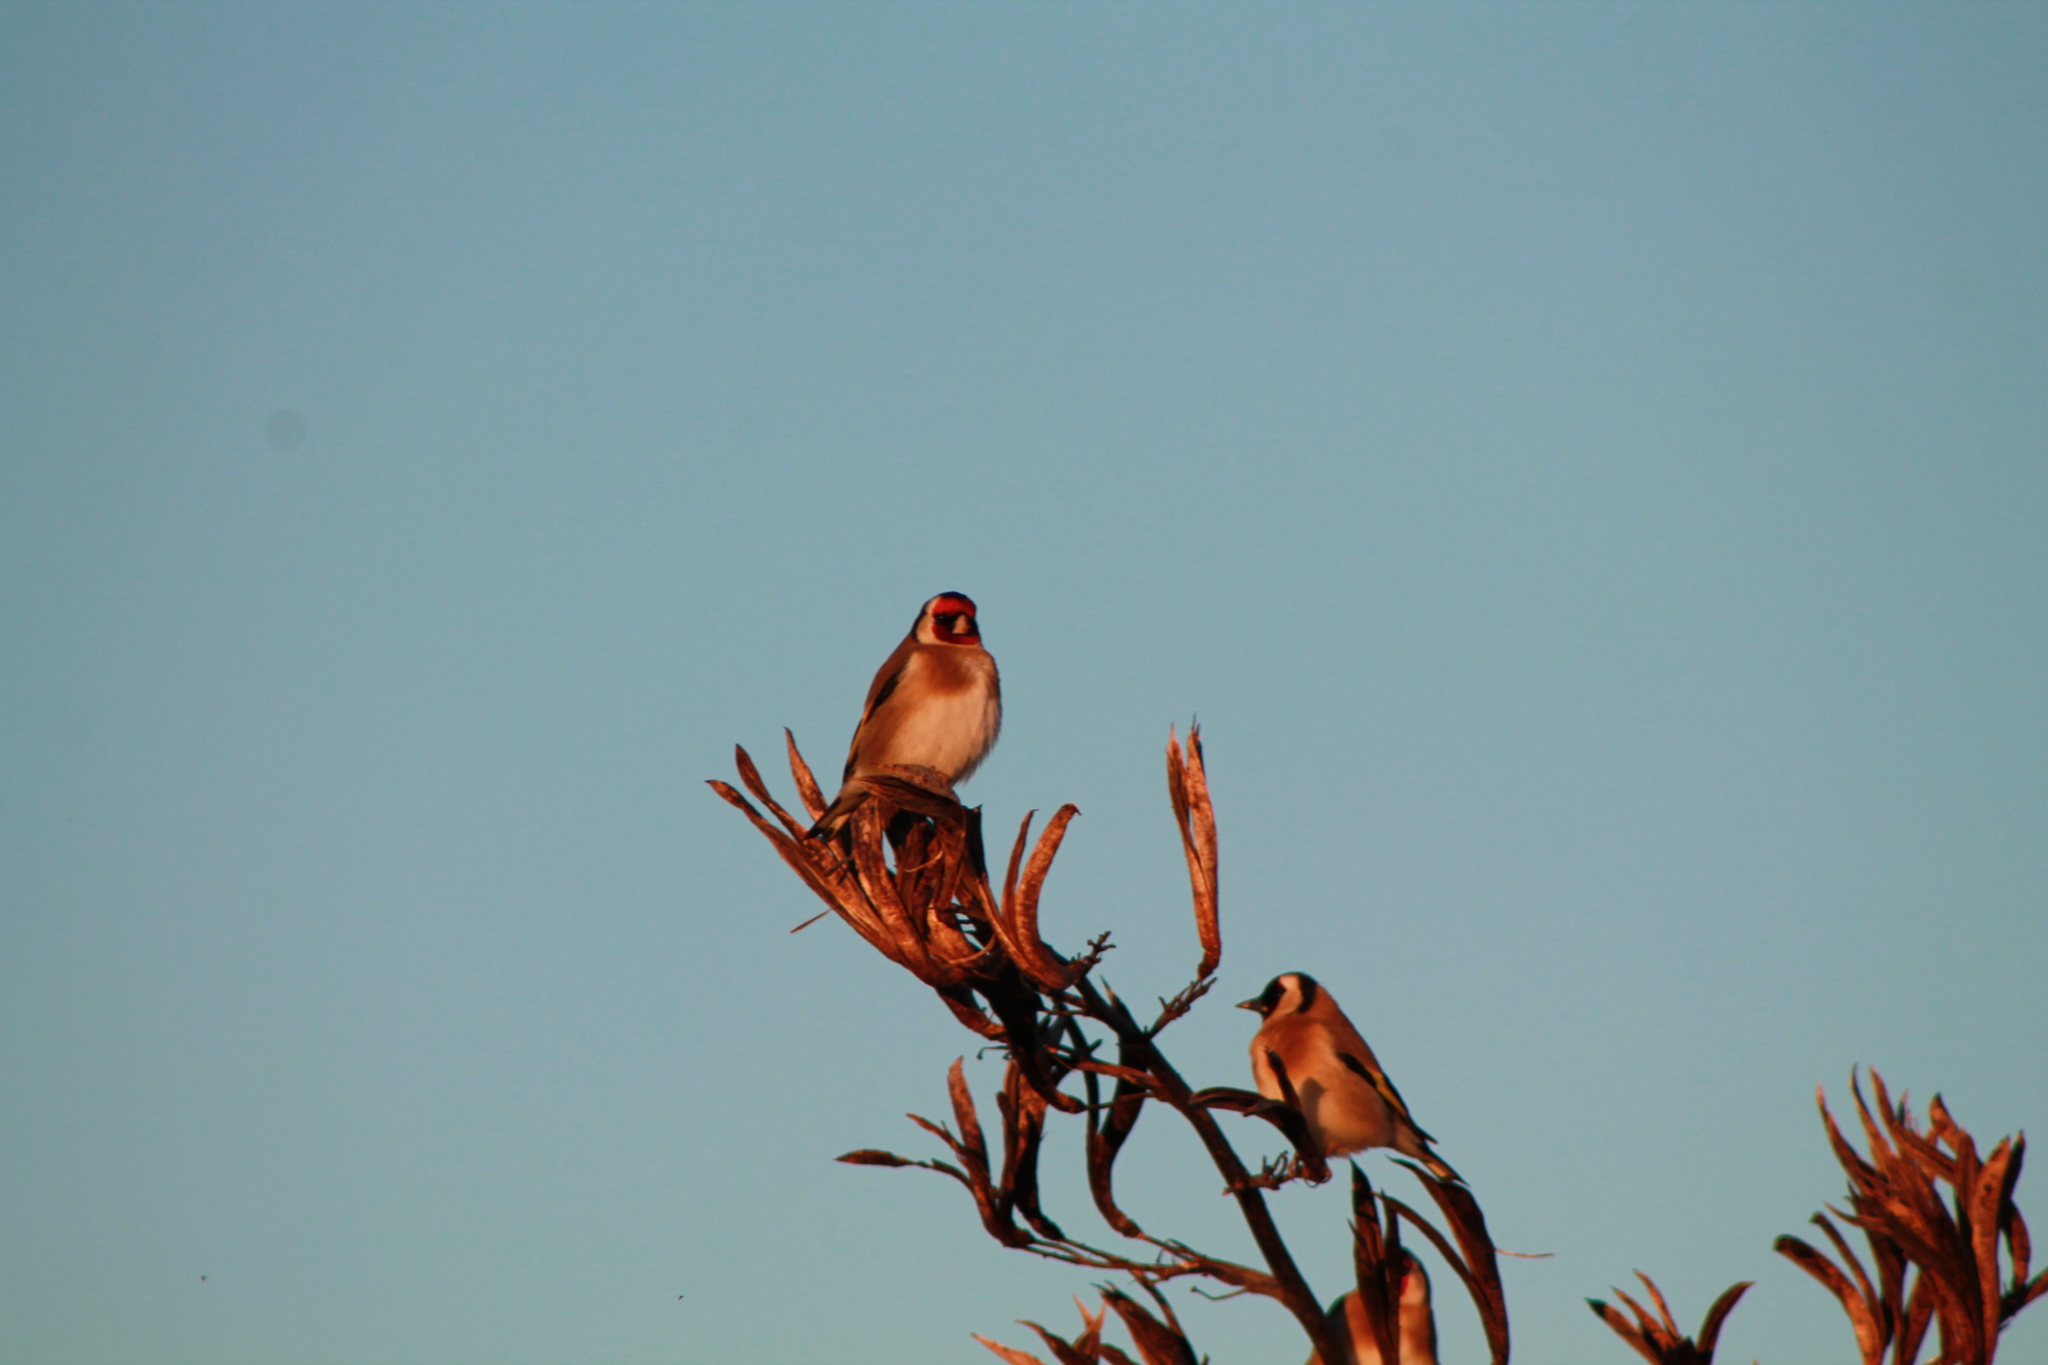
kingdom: Animalia
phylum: Chordata
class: Aves
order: Passeriformes
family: Fringillidae
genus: Carduelis
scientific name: Carduelis carduelis
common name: European goldfinch
